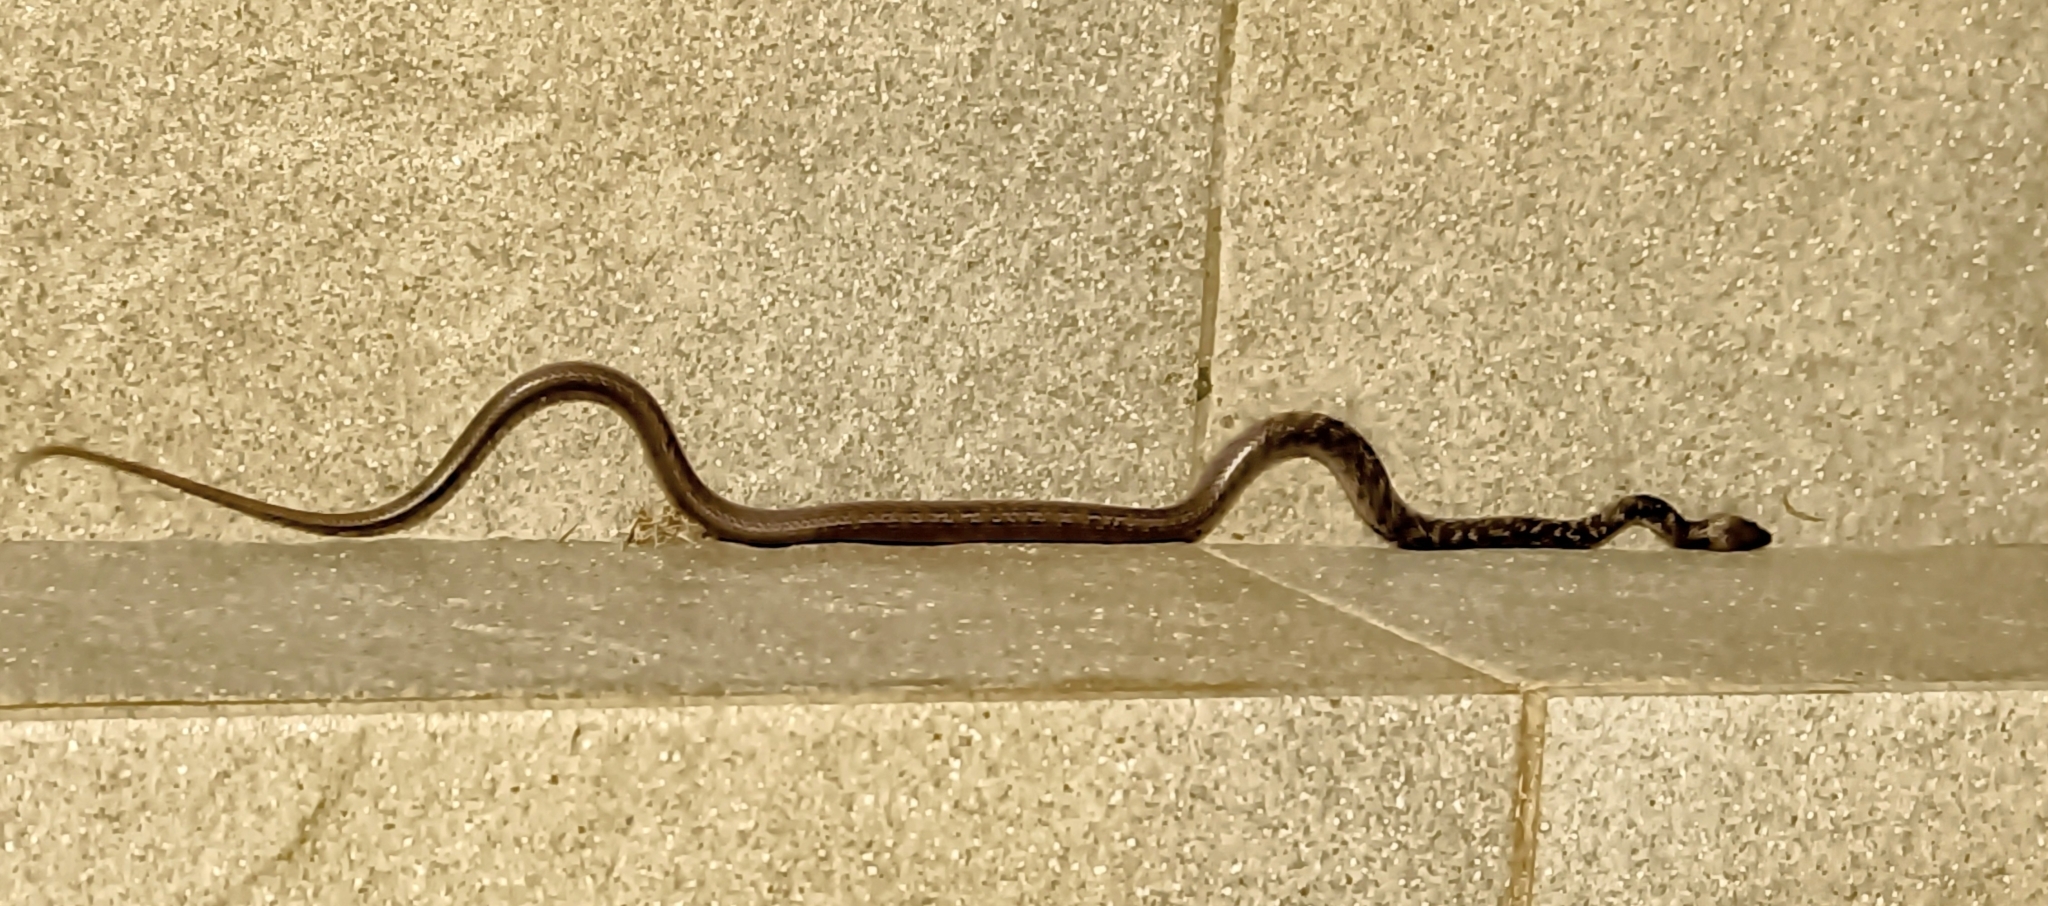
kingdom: Animalia
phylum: Chordata
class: Squamata
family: Colubridae
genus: Lycodon
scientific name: Lycodon capucinus
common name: Common wold snake/house snake
